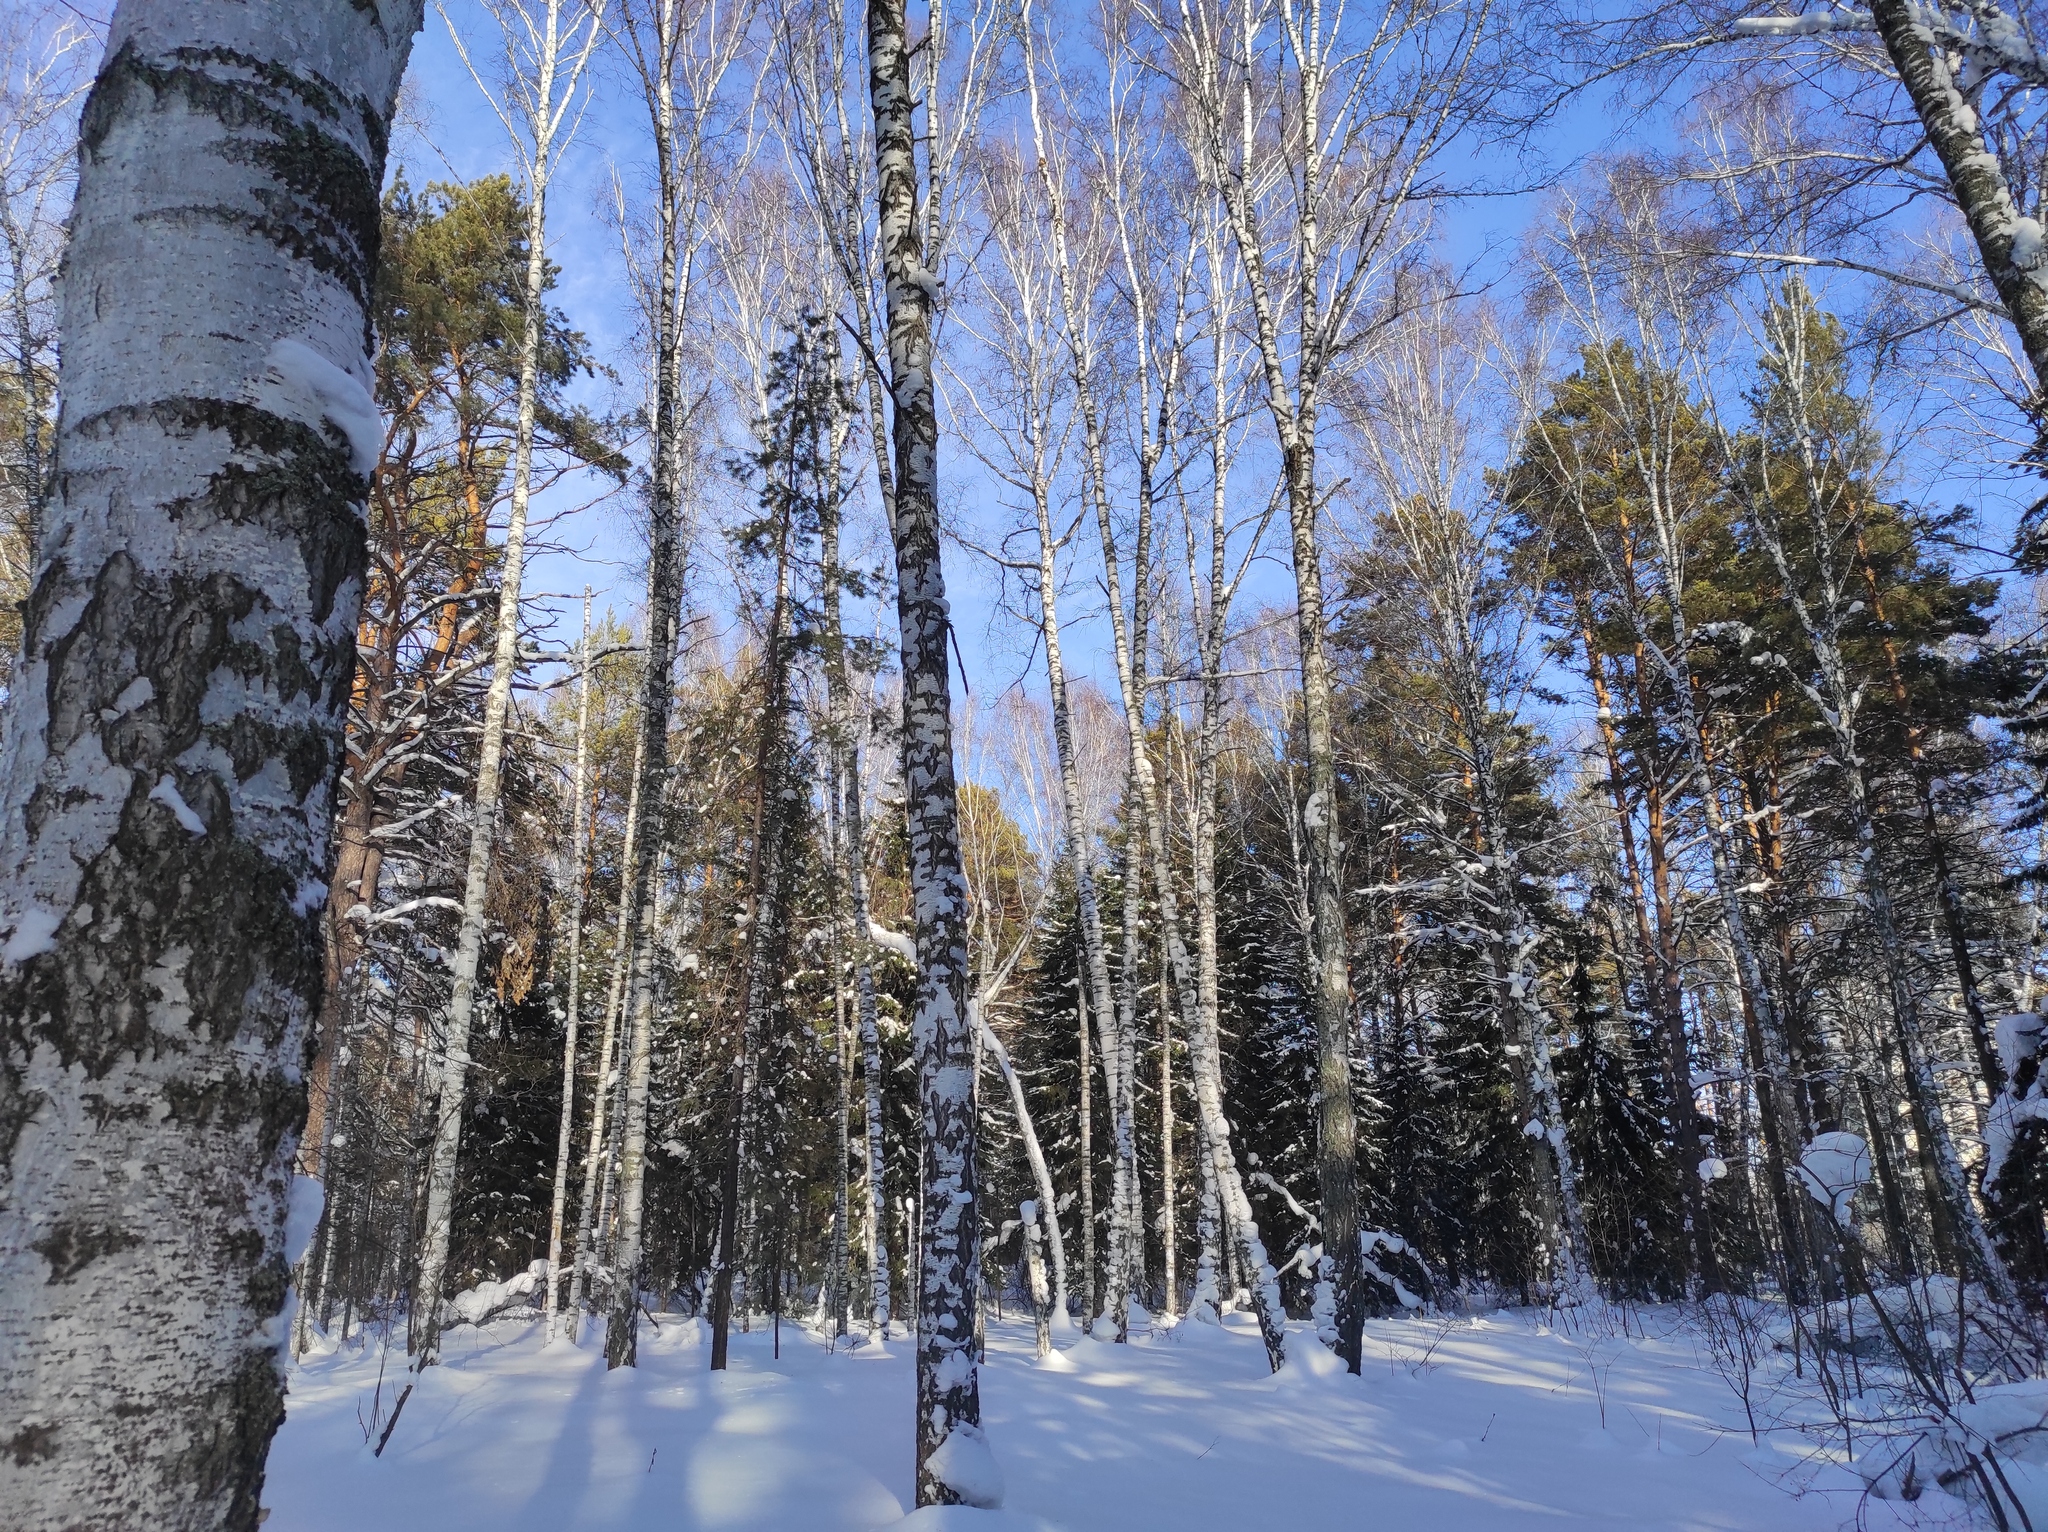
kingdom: Plantae
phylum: Tracheophyta
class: Pinopsida
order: Pinales
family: Pinaceae
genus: Pinus
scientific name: Pinus sylvestris
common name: Scots pine
